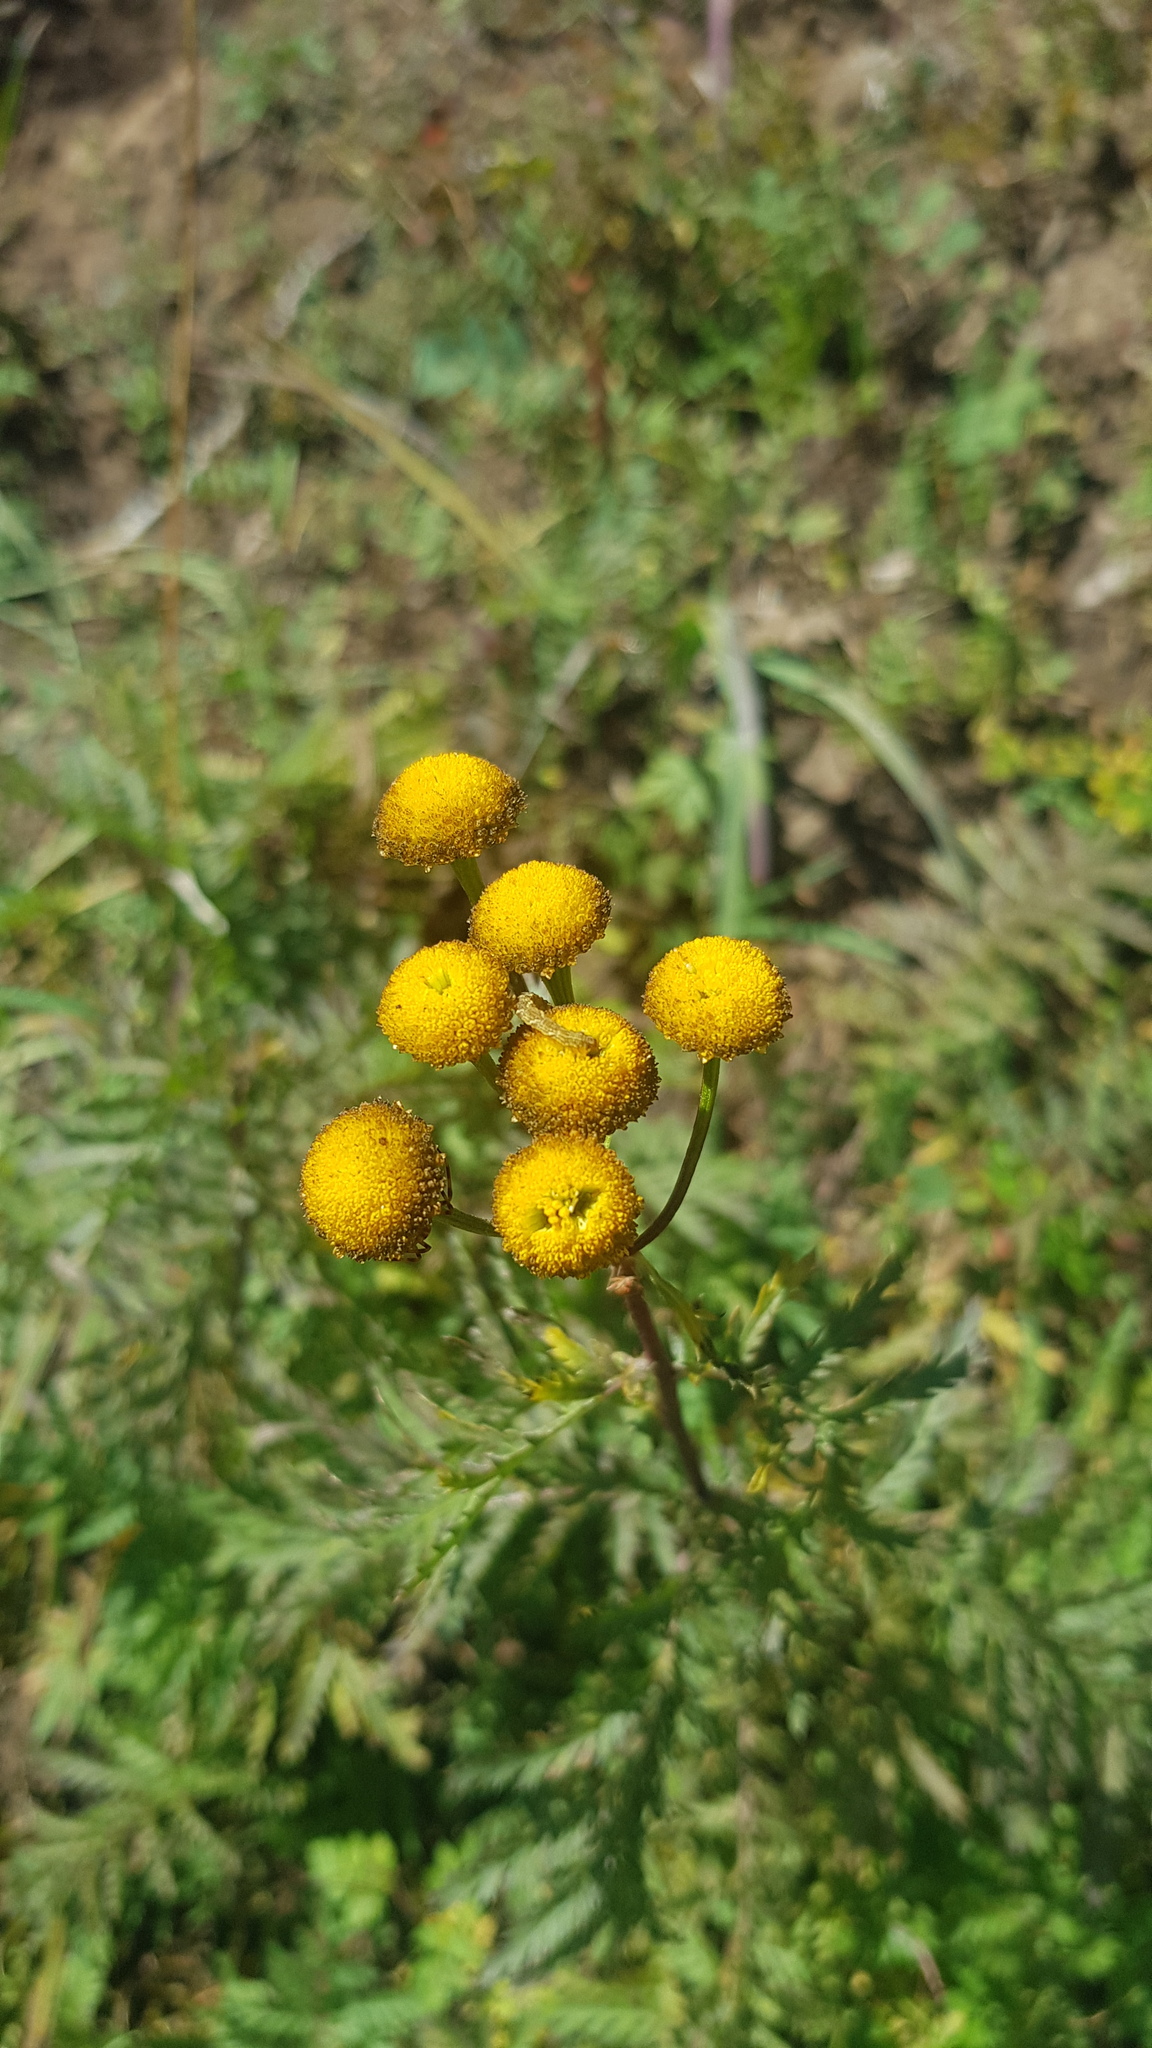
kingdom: Plantae
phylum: Tracheophyta
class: Magnoliopsida
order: Asterales
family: Asteraceae
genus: Tanacetum
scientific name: Tanacetum vulgare
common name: Common tansy
